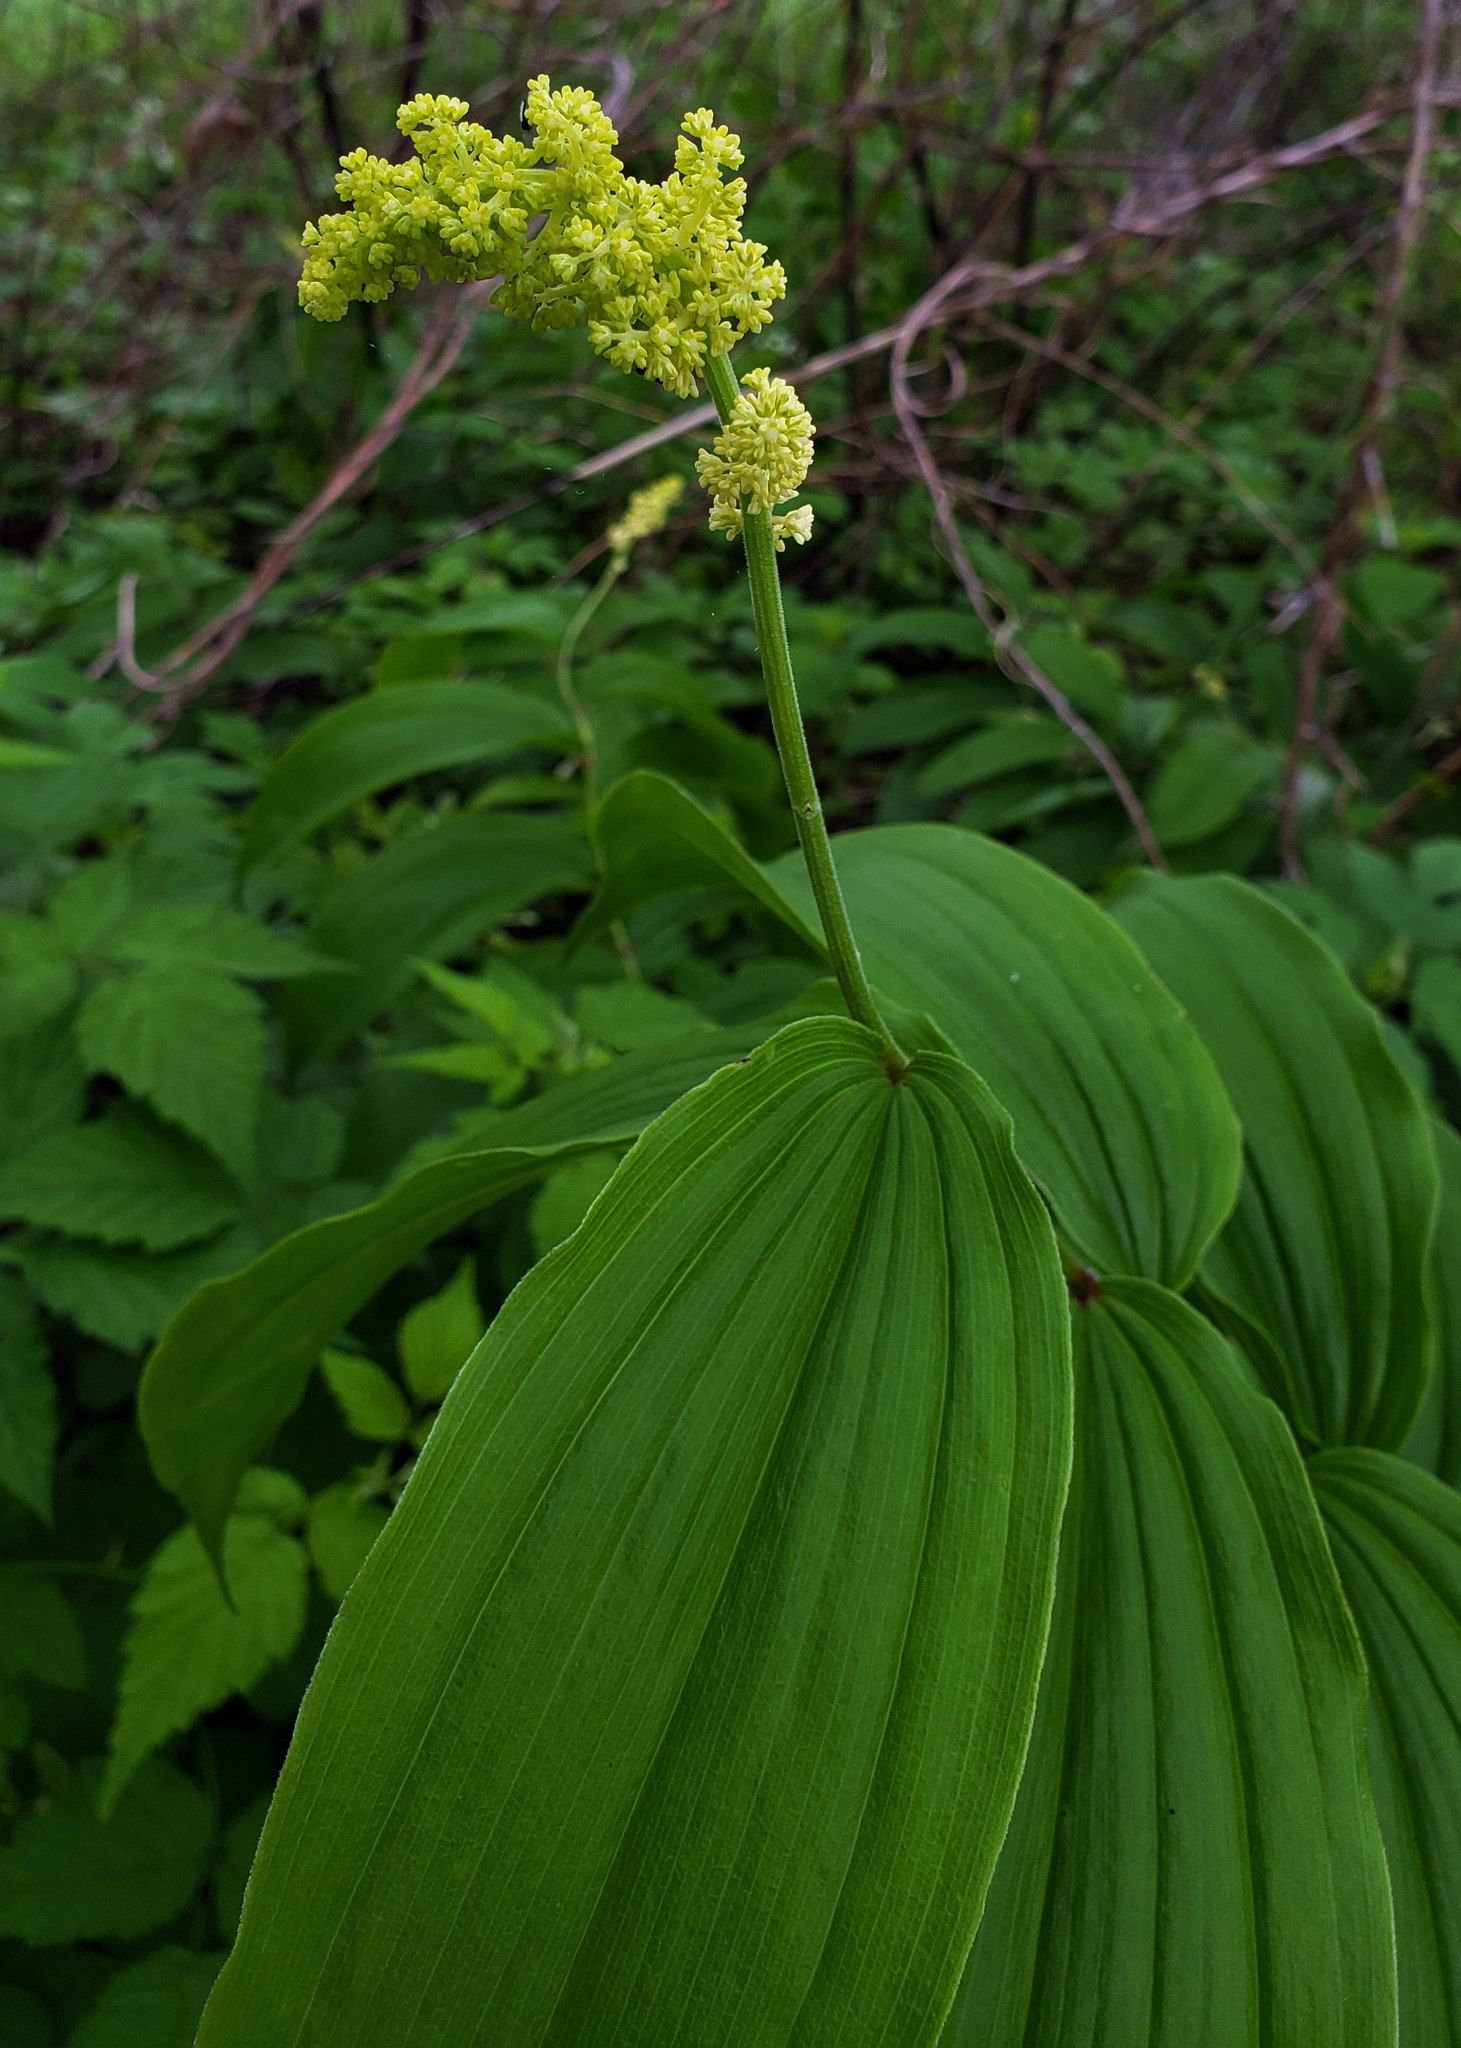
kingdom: Plantae
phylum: Tracheophyta
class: Liliopsida
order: Asparagales
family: Asparagaceae
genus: Maianthemum
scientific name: Maianthemum racemosum
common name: False spikenard
